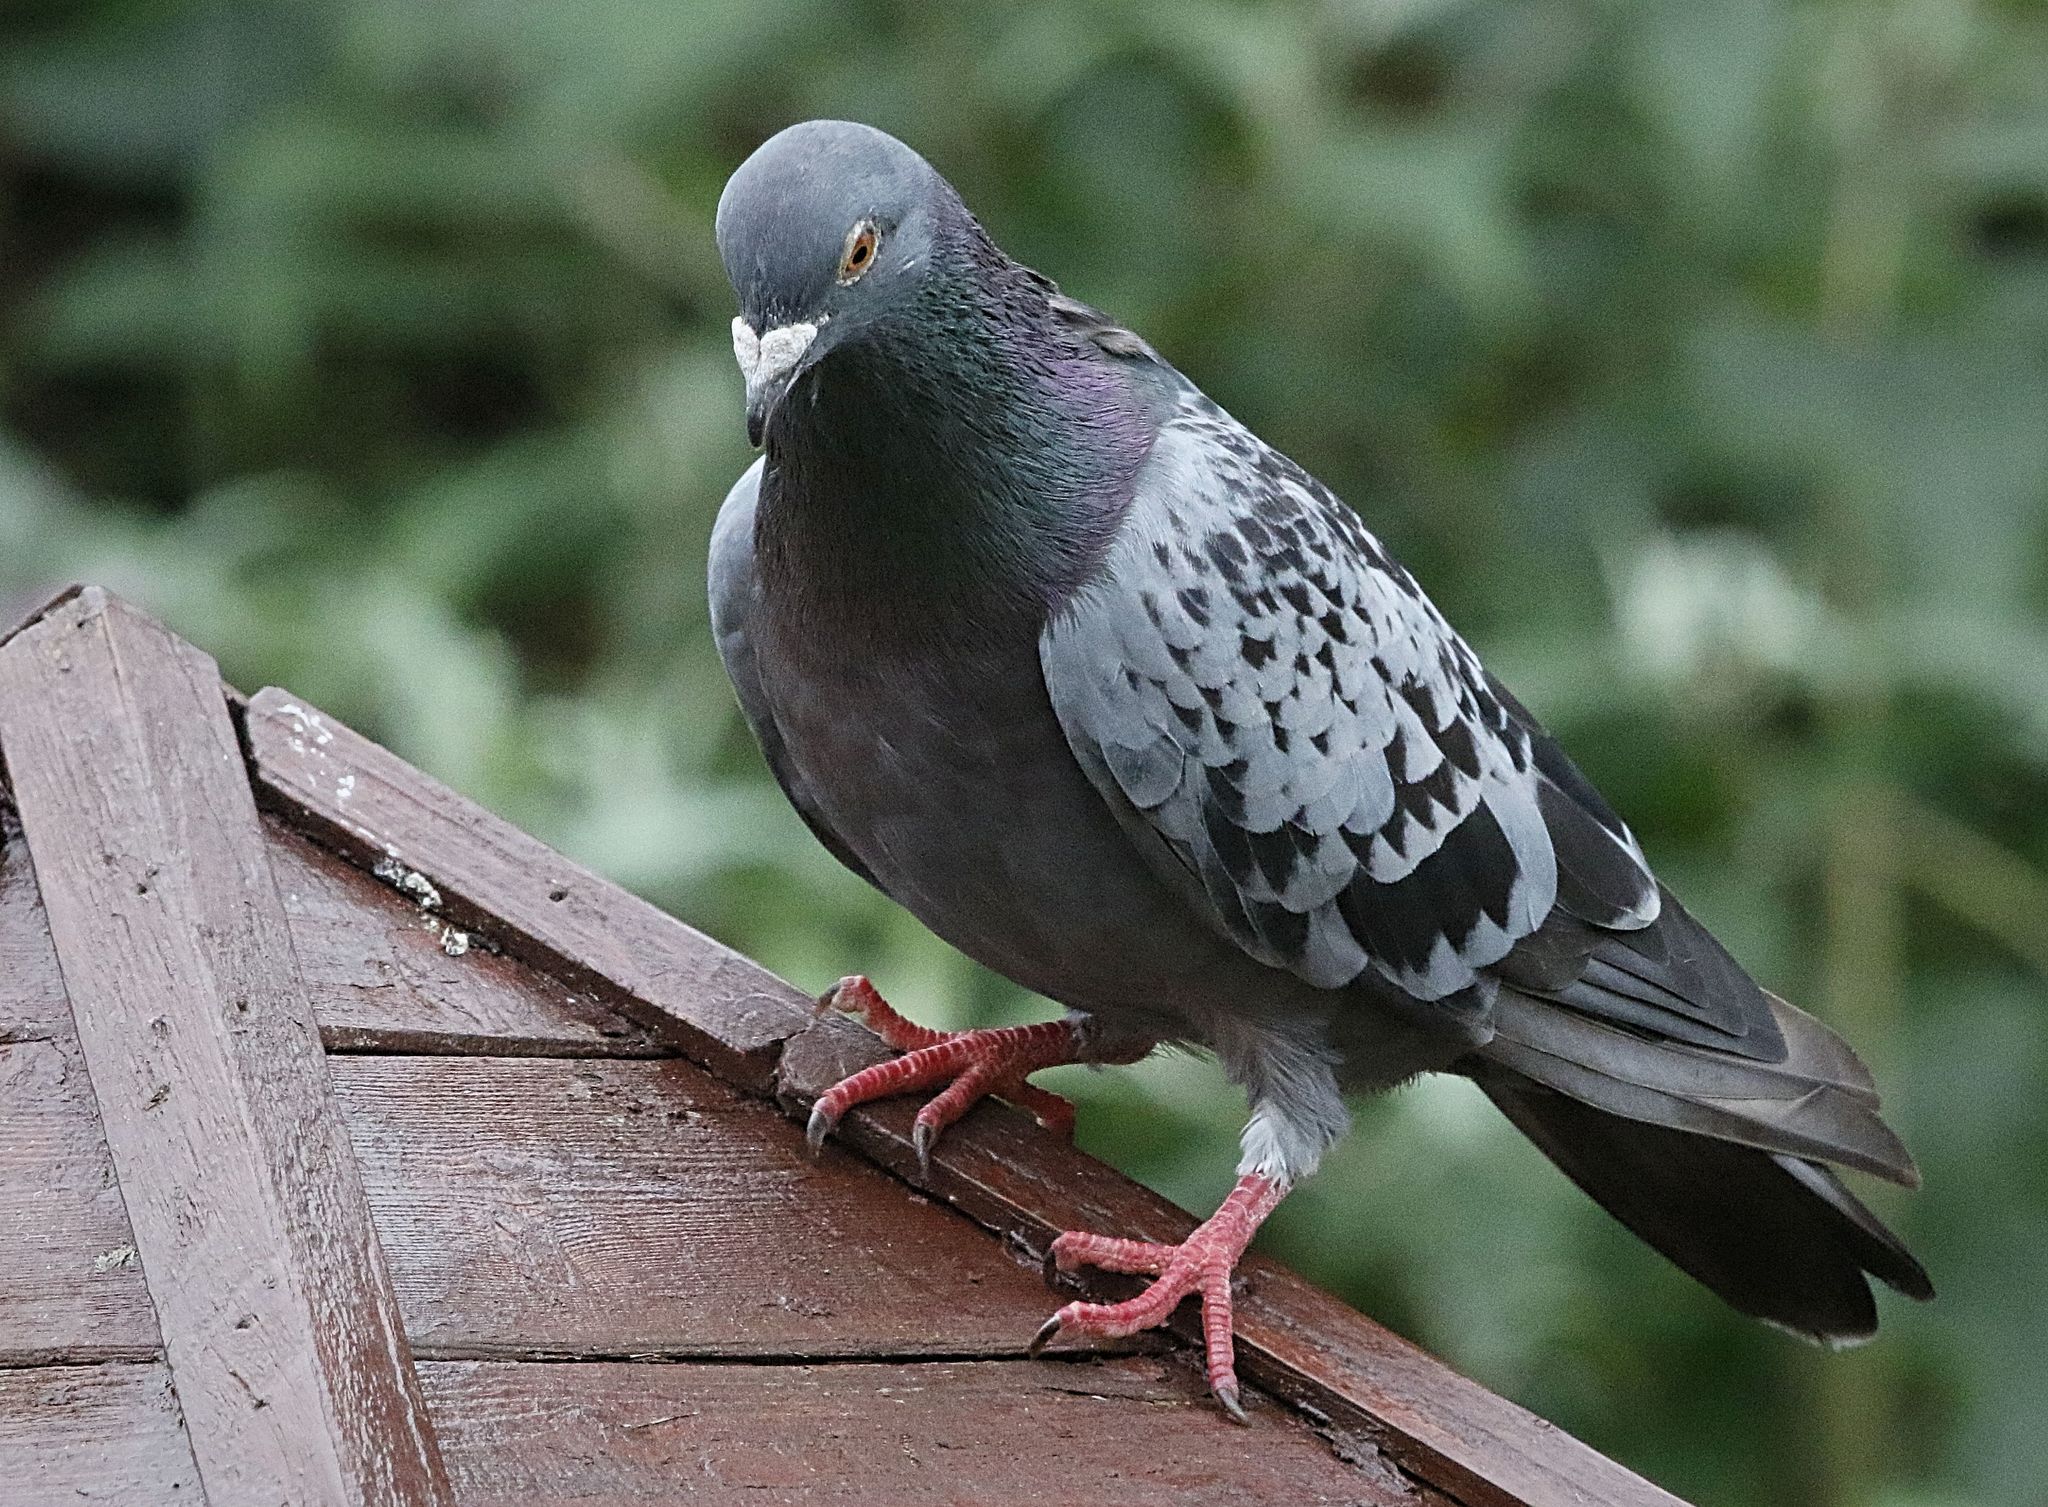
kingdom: Animalia
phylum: Chordata
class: Aves
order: Columbiformes
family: Columbidae
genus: Columba
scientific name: Columba livia
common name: Rock pigeon
